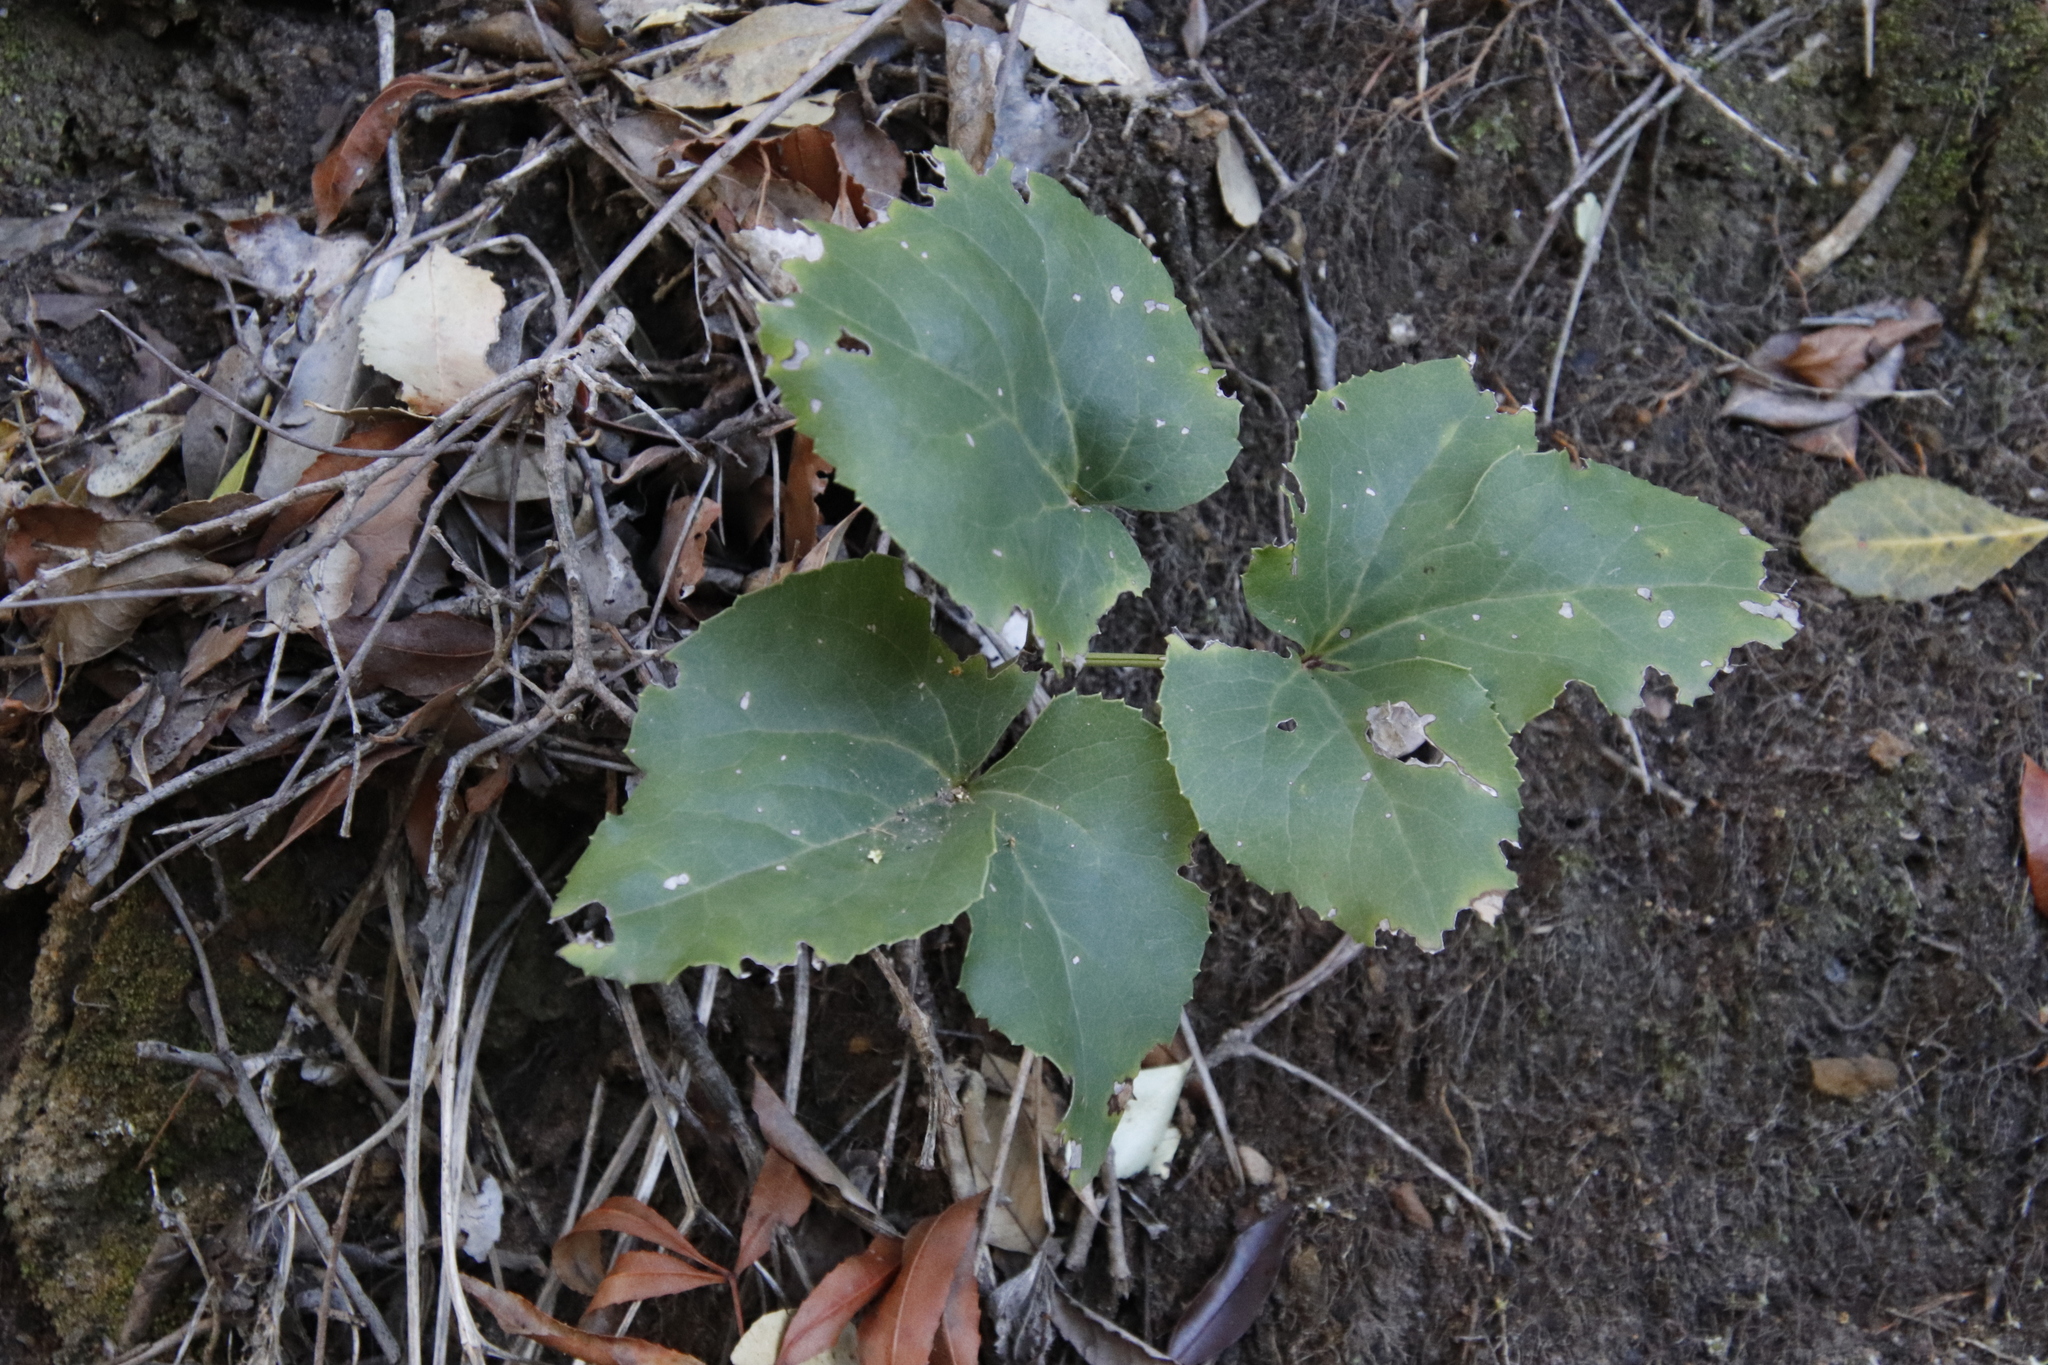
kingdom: Plantae
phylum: Tracheophyta
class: Magnoliopsida
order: Ranunculales
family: Ranunculaceae
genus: Knowltonia
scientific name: Knowltonia vesicatoria
